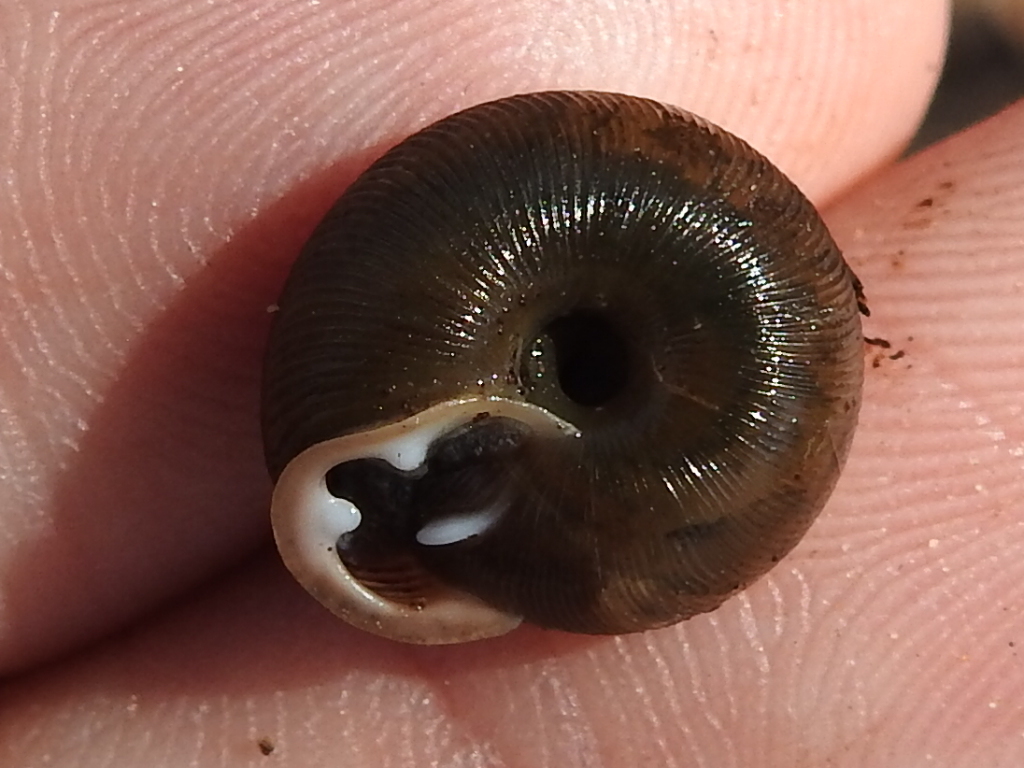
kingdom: Animalia
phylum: Mollusca
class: Gastropoda
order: Stylommatophora
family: Polygyridae
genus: Triodopsis
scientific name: Triodopsis hopetonensis
